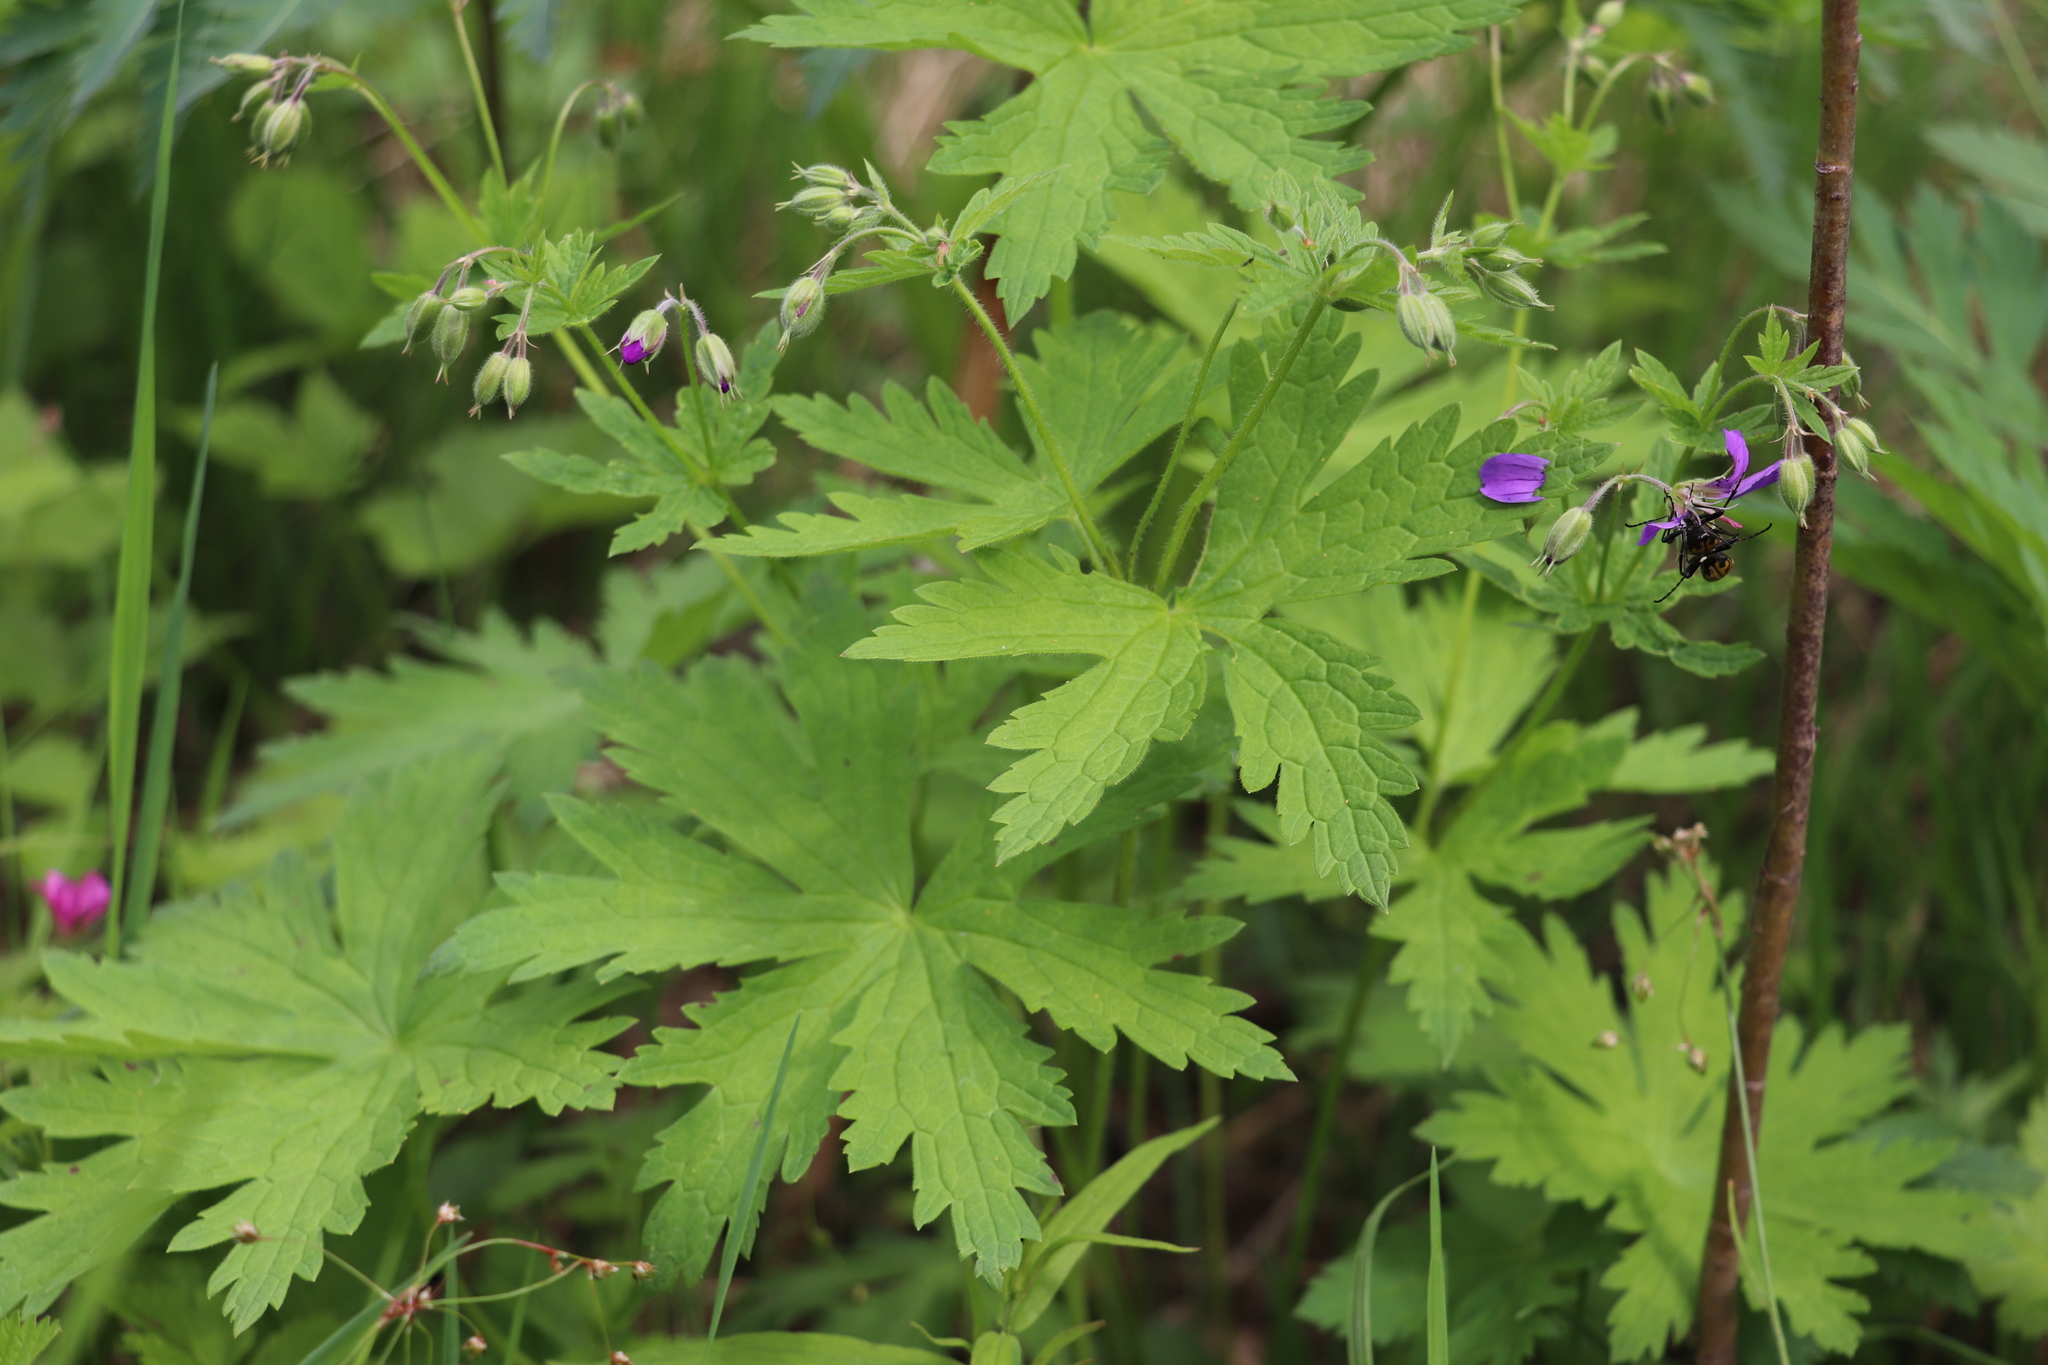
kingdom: Plantae
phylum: Tracheophyta
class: Magnoliopsida
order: Geraniales
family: Geraniaceae
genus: Geranium
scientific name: Geranium sylvaticum
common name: Wood crane's-bill
